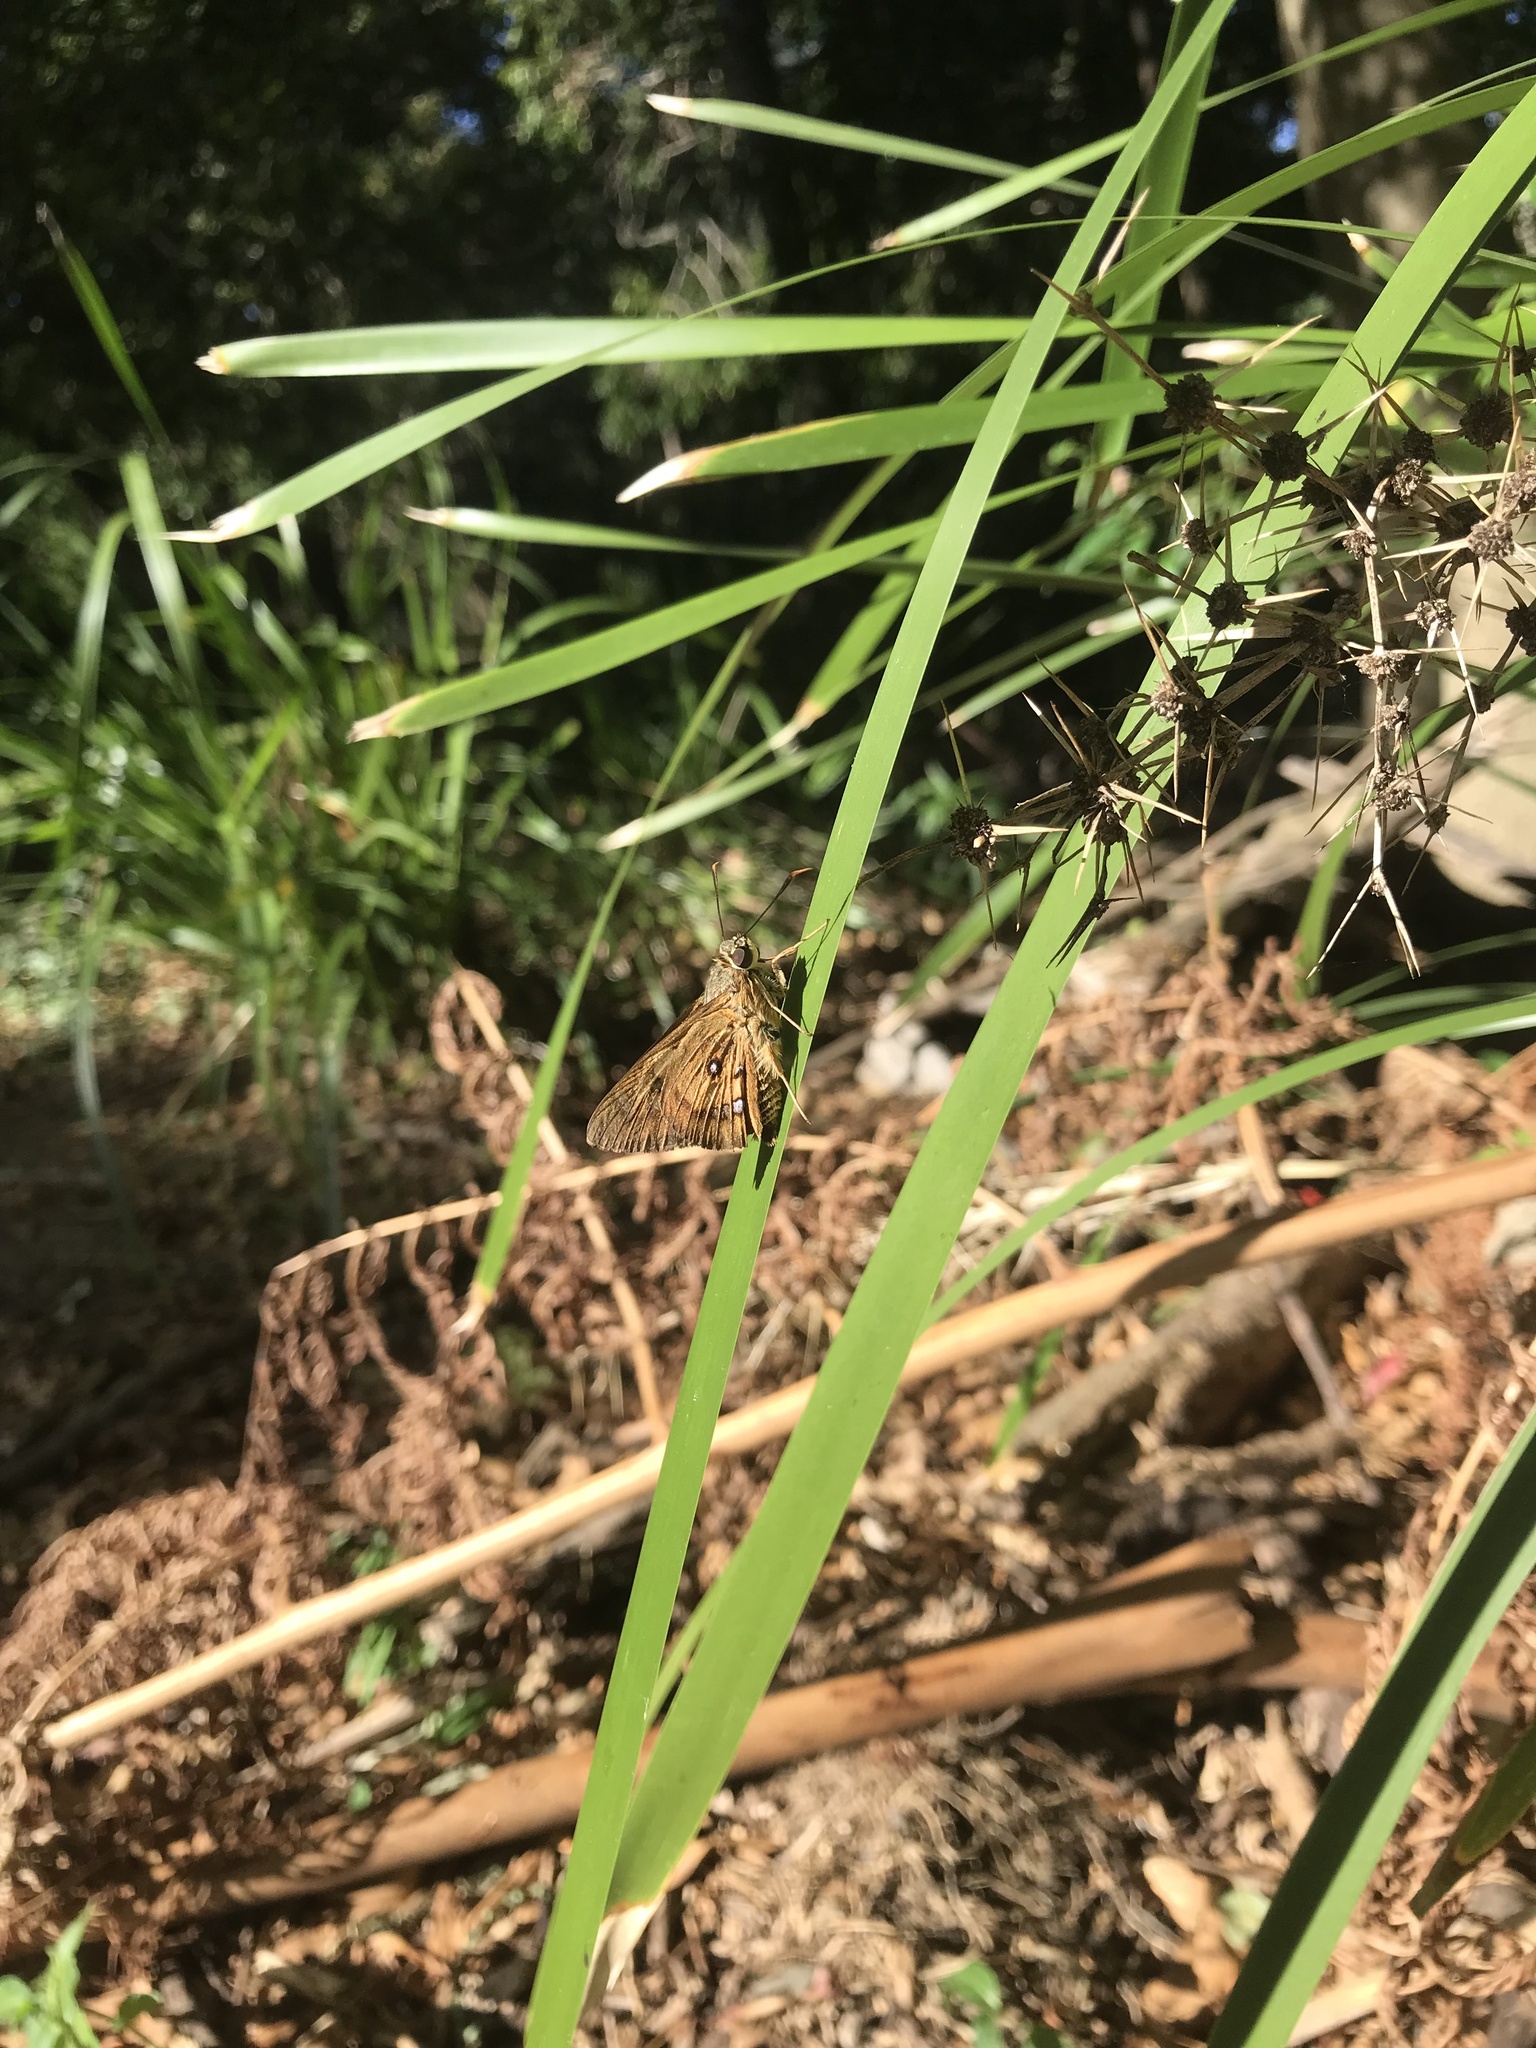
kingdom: Animalia
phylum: Arthropoda
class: Insecta
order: Lepidoptera
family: Hesperiidae
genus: Trapezites
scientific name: Trapezites symmomus
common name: Splendid ochre
